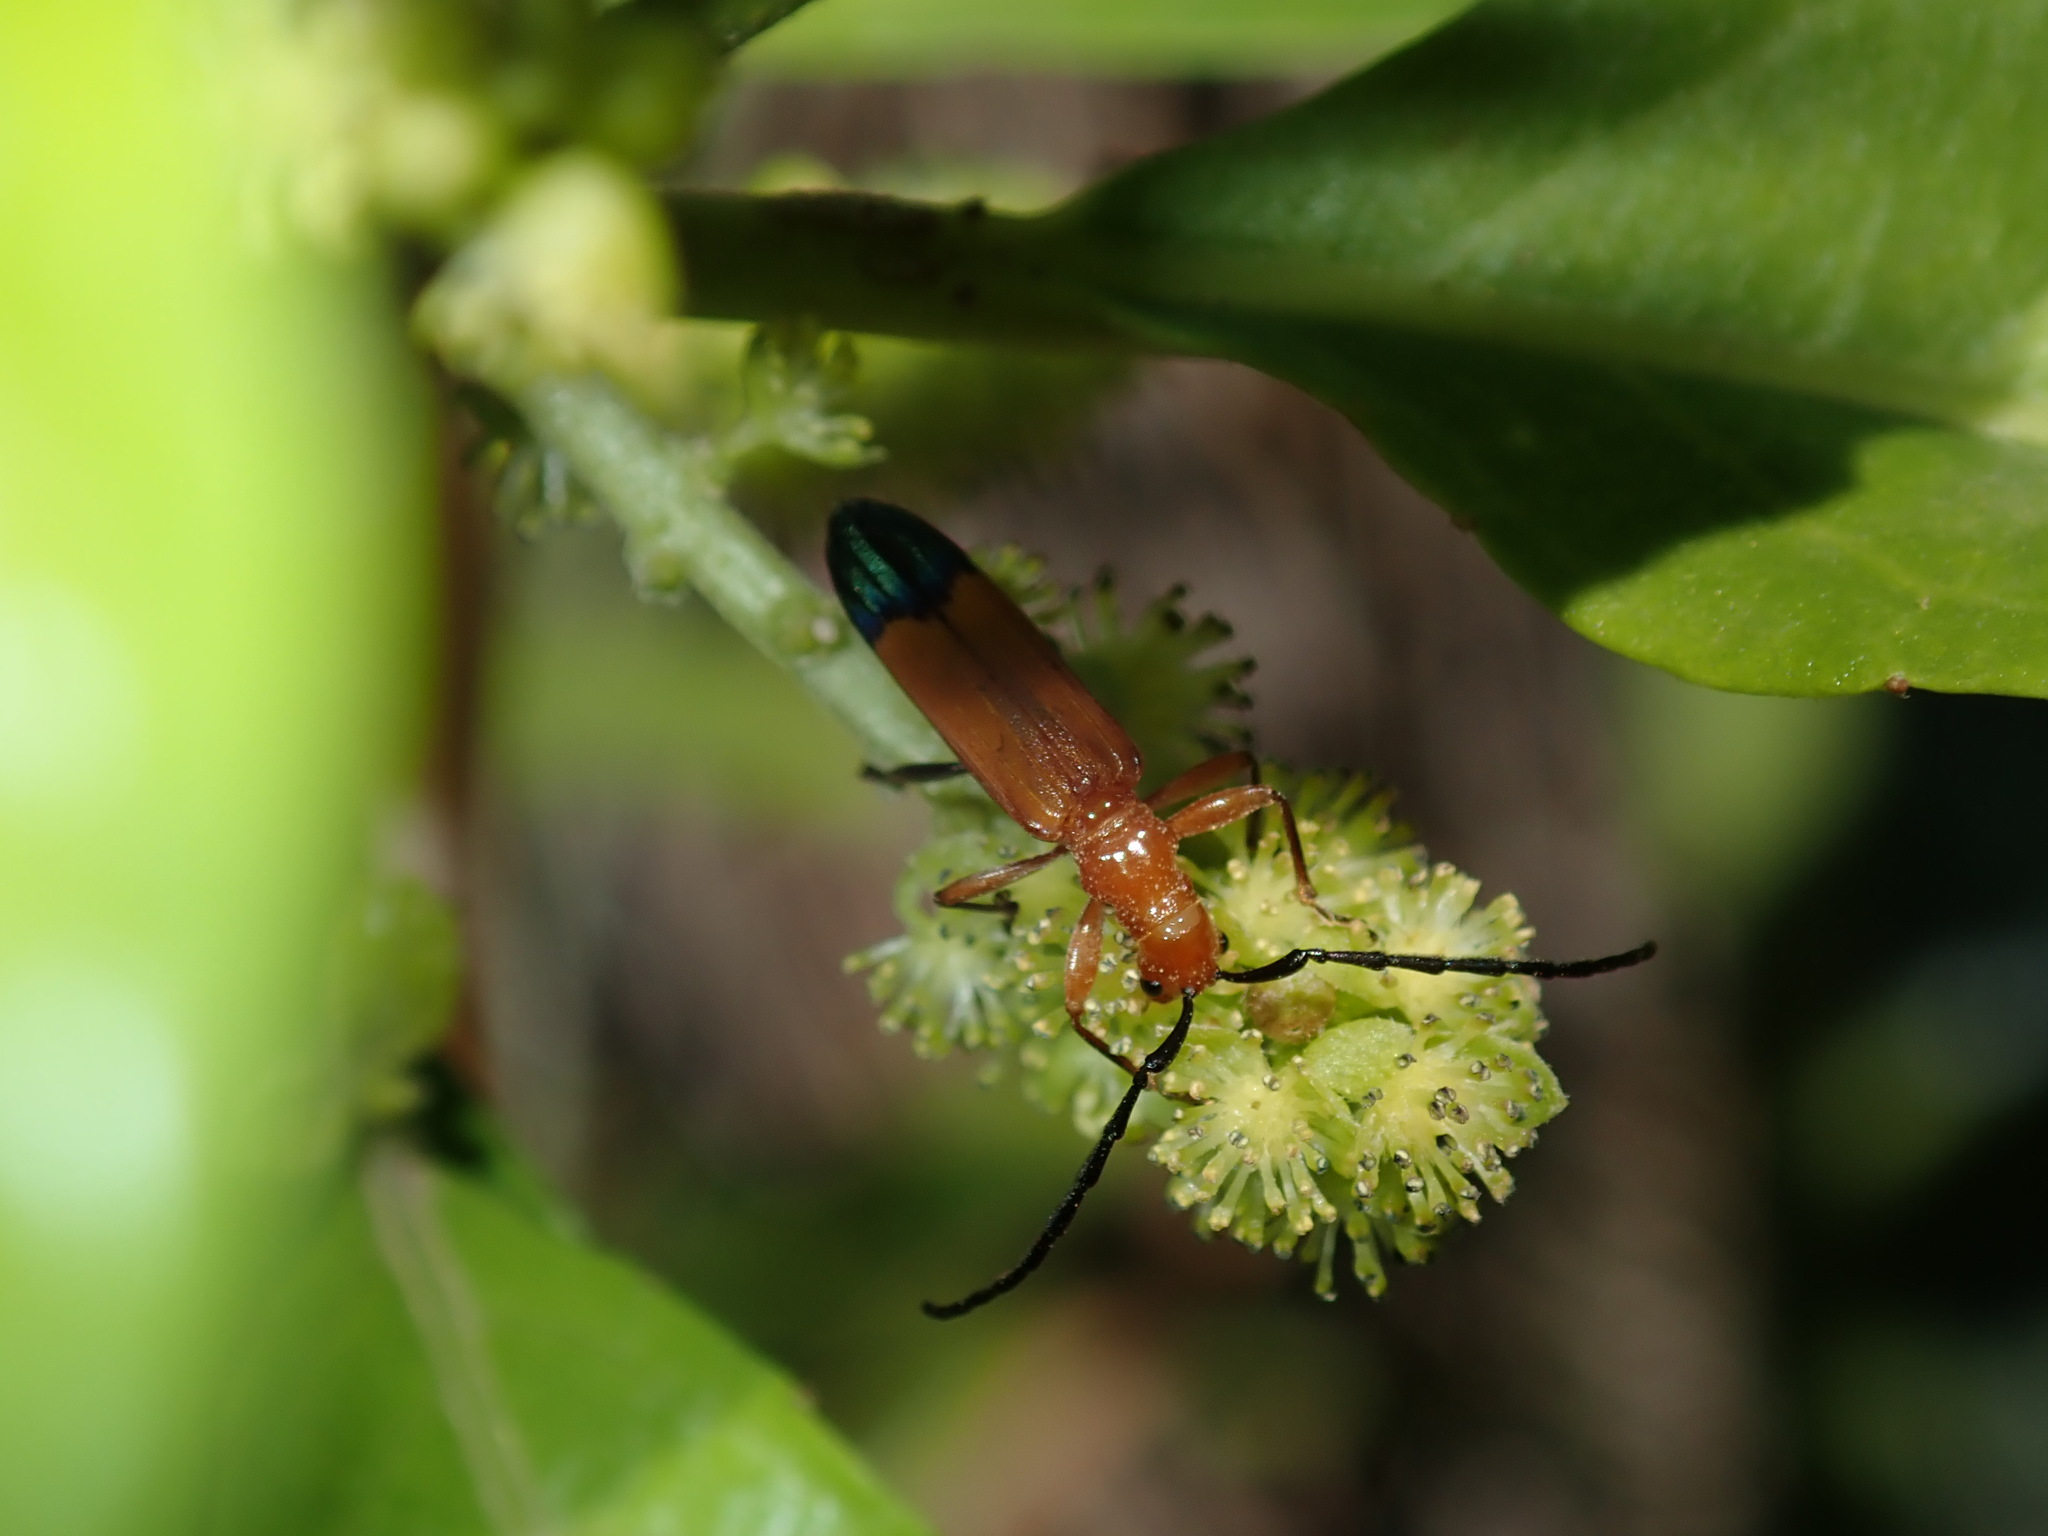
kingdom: Animalia
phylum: Arthropoda
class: Insecta
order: Coleoptera
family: Cerambycidae
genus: Stenoderus
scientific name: Stenoderus ostricilla
